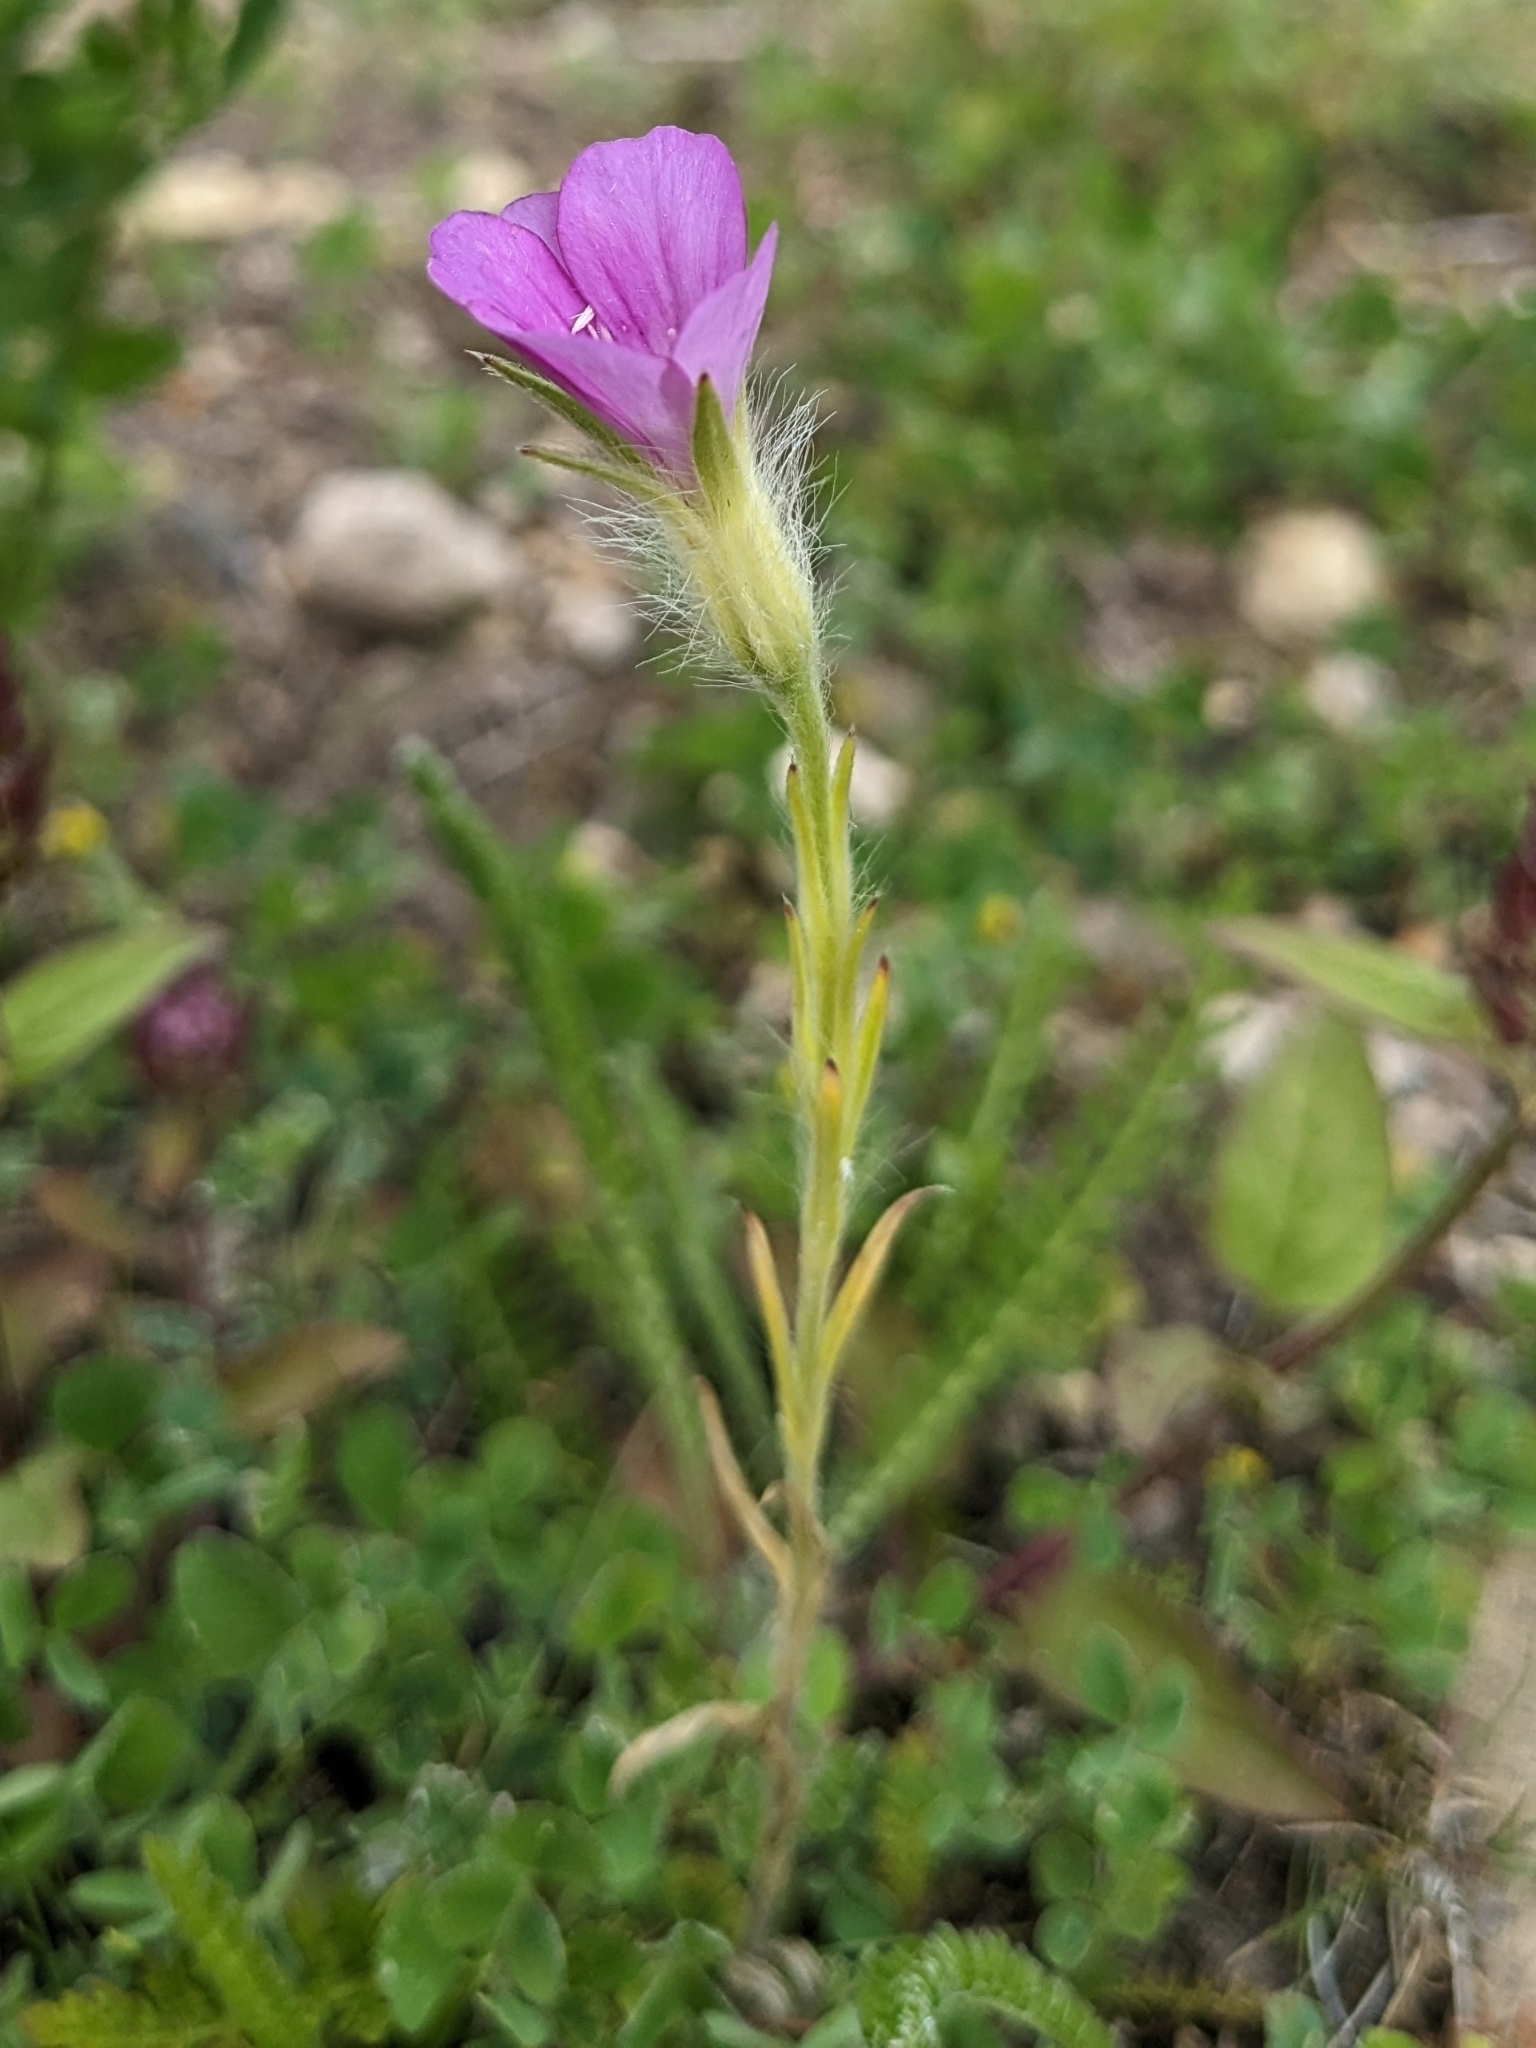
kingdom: Plantae
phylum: Tracheophyta
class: Magnoliopsida
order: Caryophyllales
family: Caryophyllaceae
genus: Agrostemma
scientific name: Agrostemma githago
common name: Common corncockle
